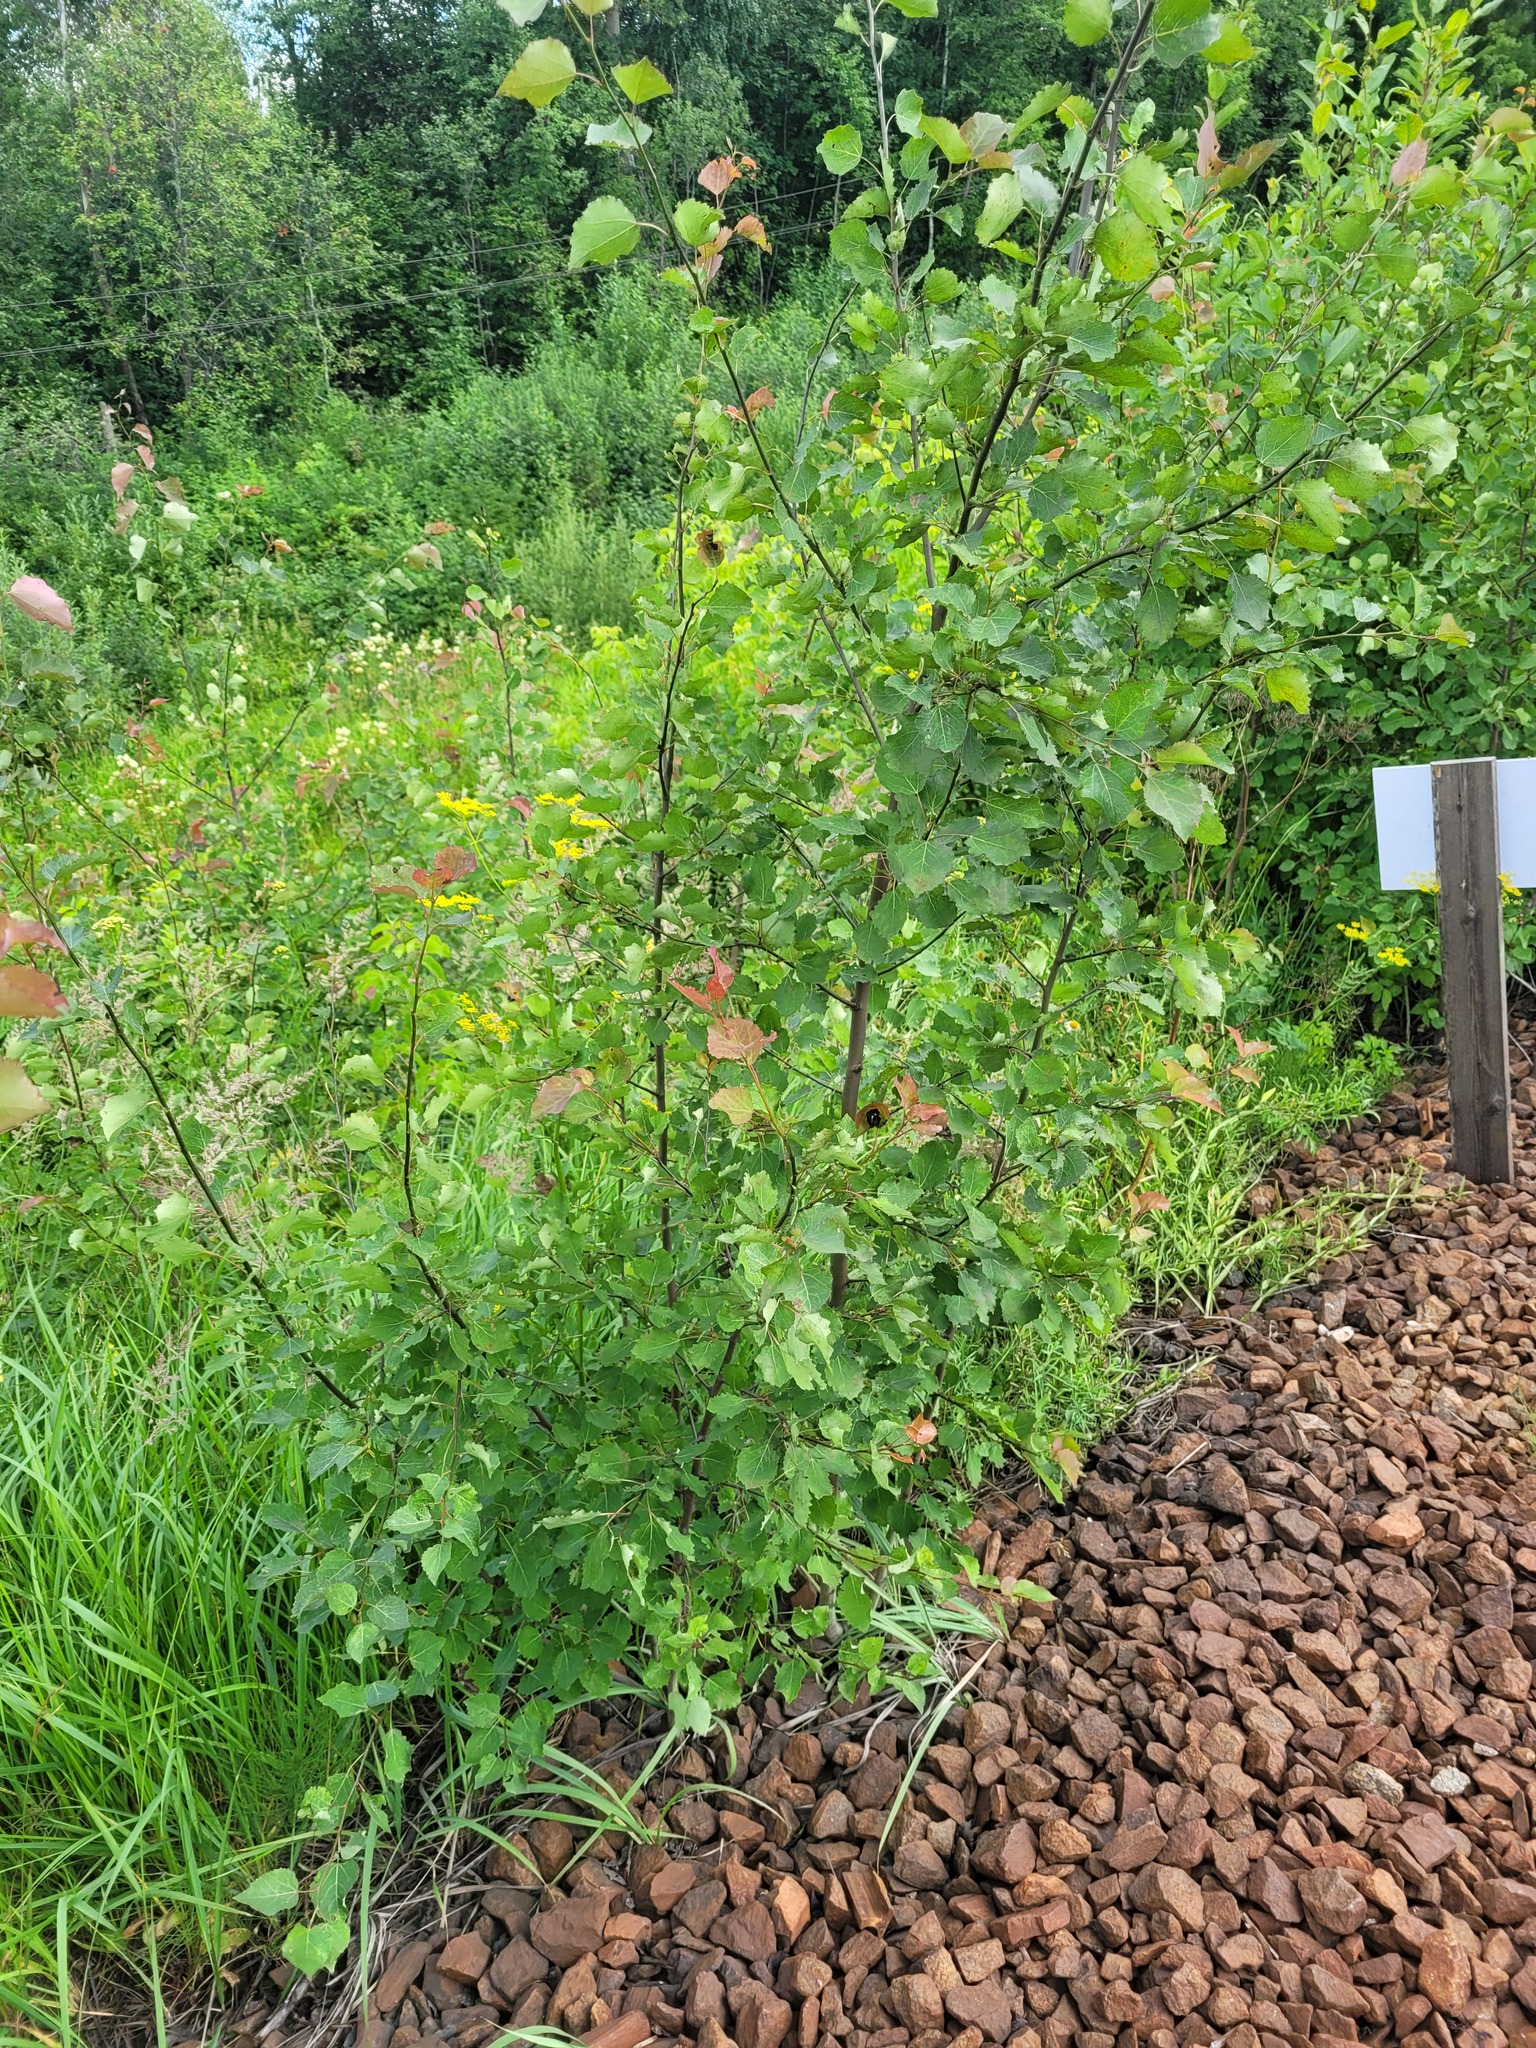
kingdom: Plantae
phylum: Tracheophyta
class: Magnoliopsida
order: Malpighiales
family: Salicaceae
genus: Populus
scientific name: Populus tremula
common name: European aspen
